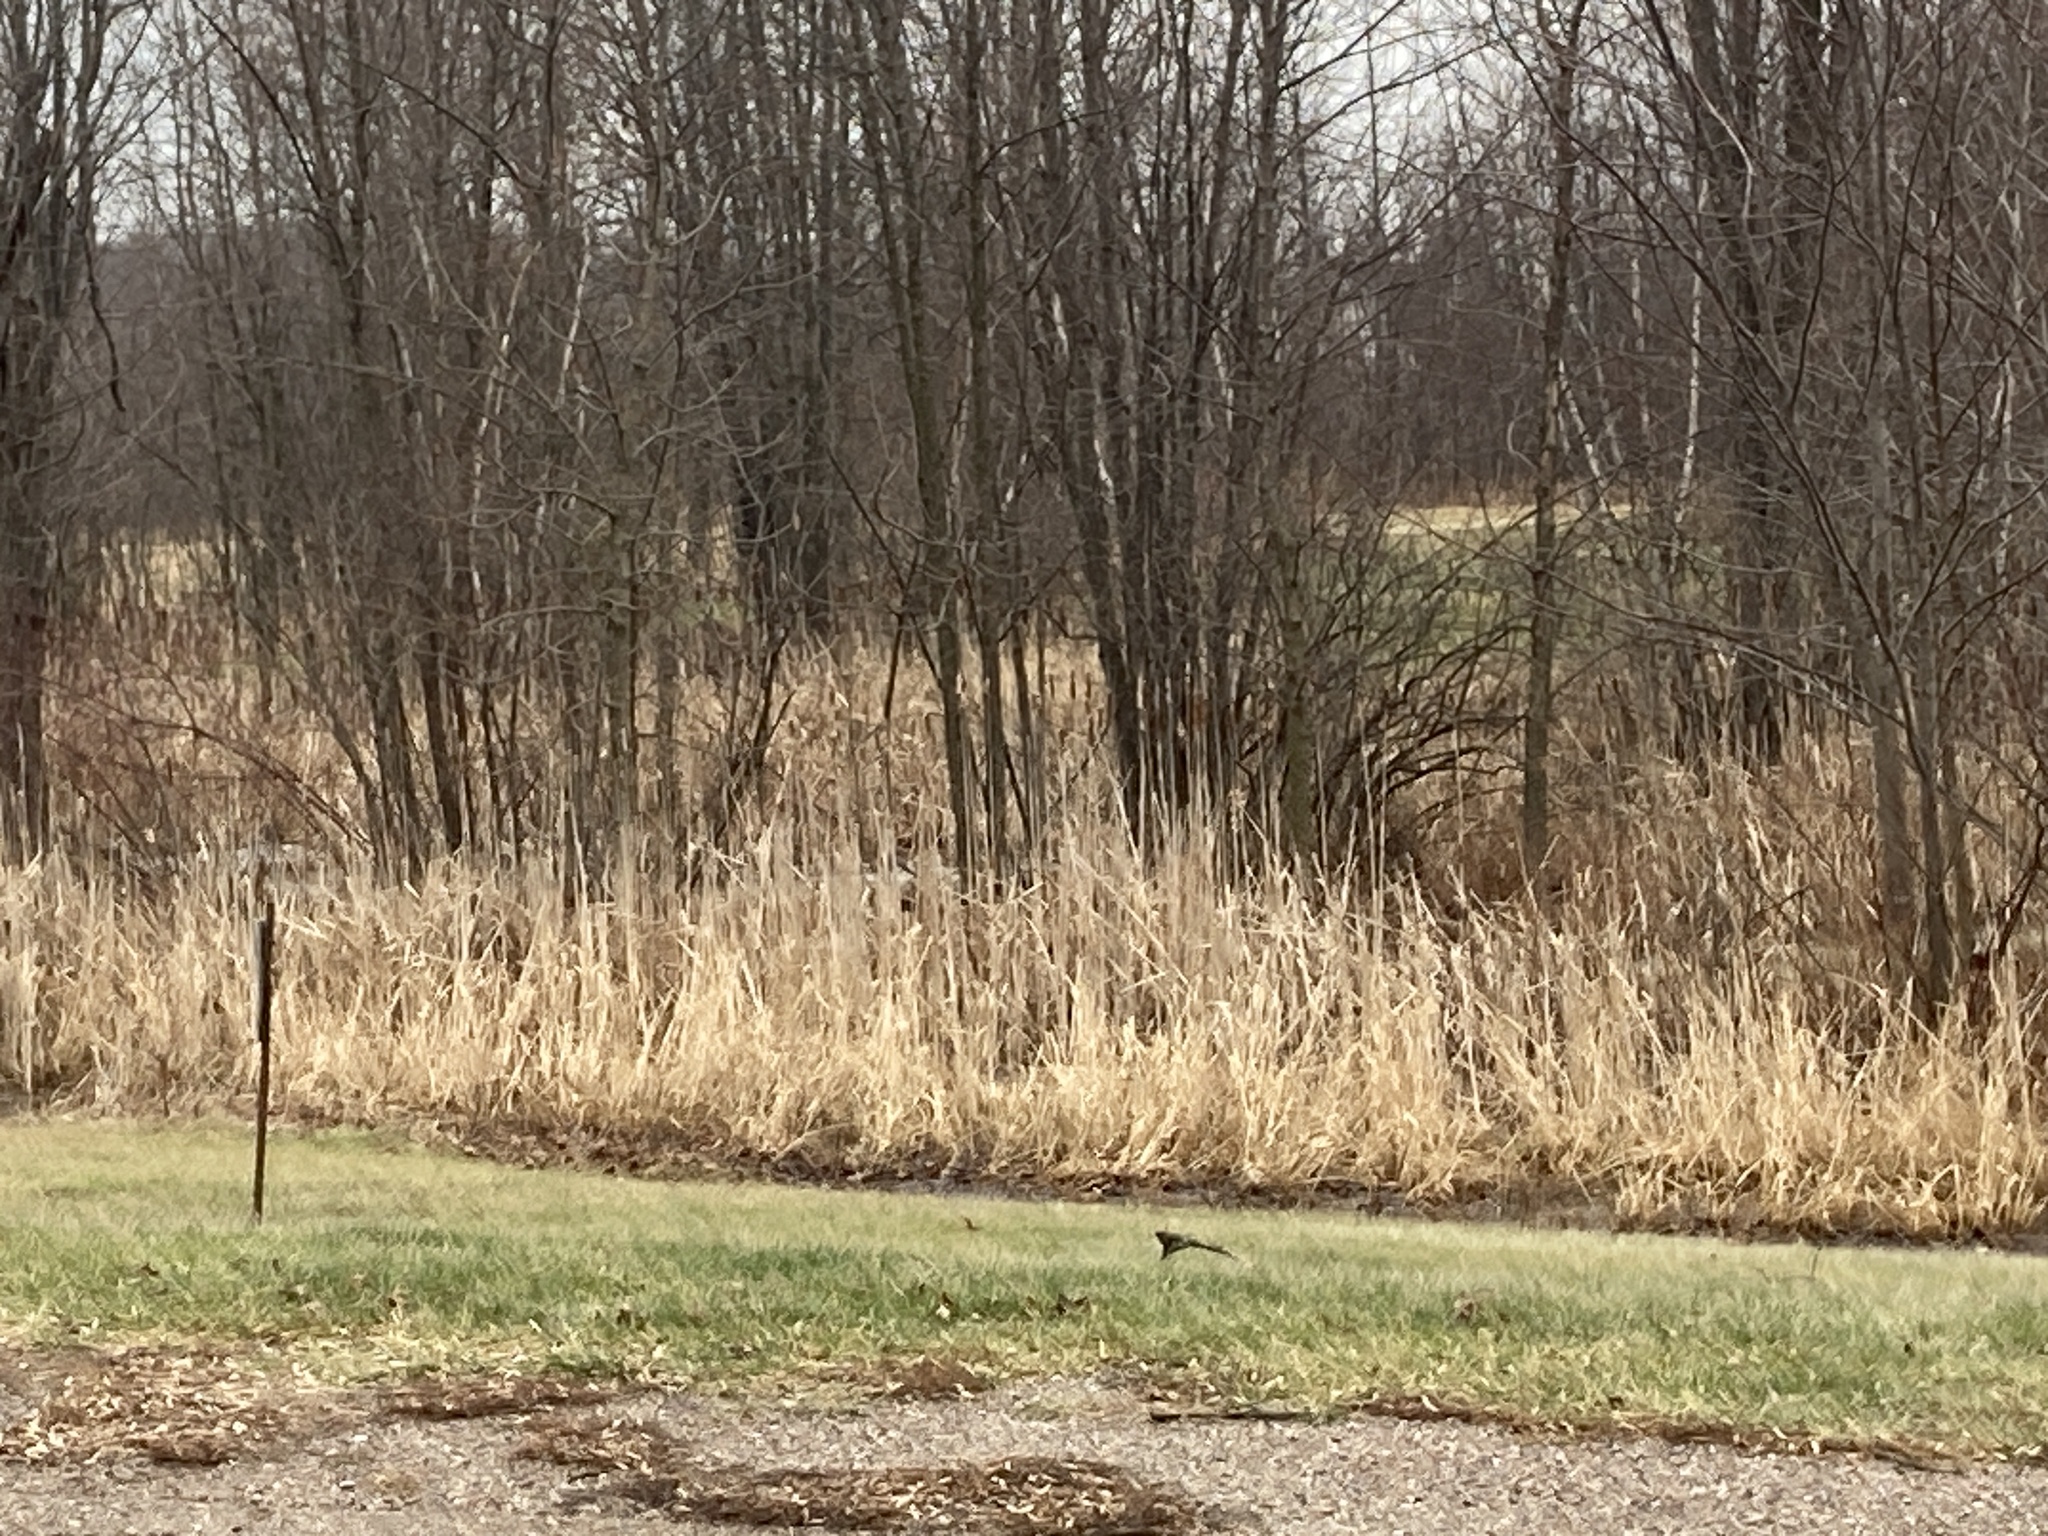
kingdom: Plantae
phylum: Tracheophyta
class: Liliopsida
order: Poales
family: Typhaceae
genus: Typha
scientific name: Typha
